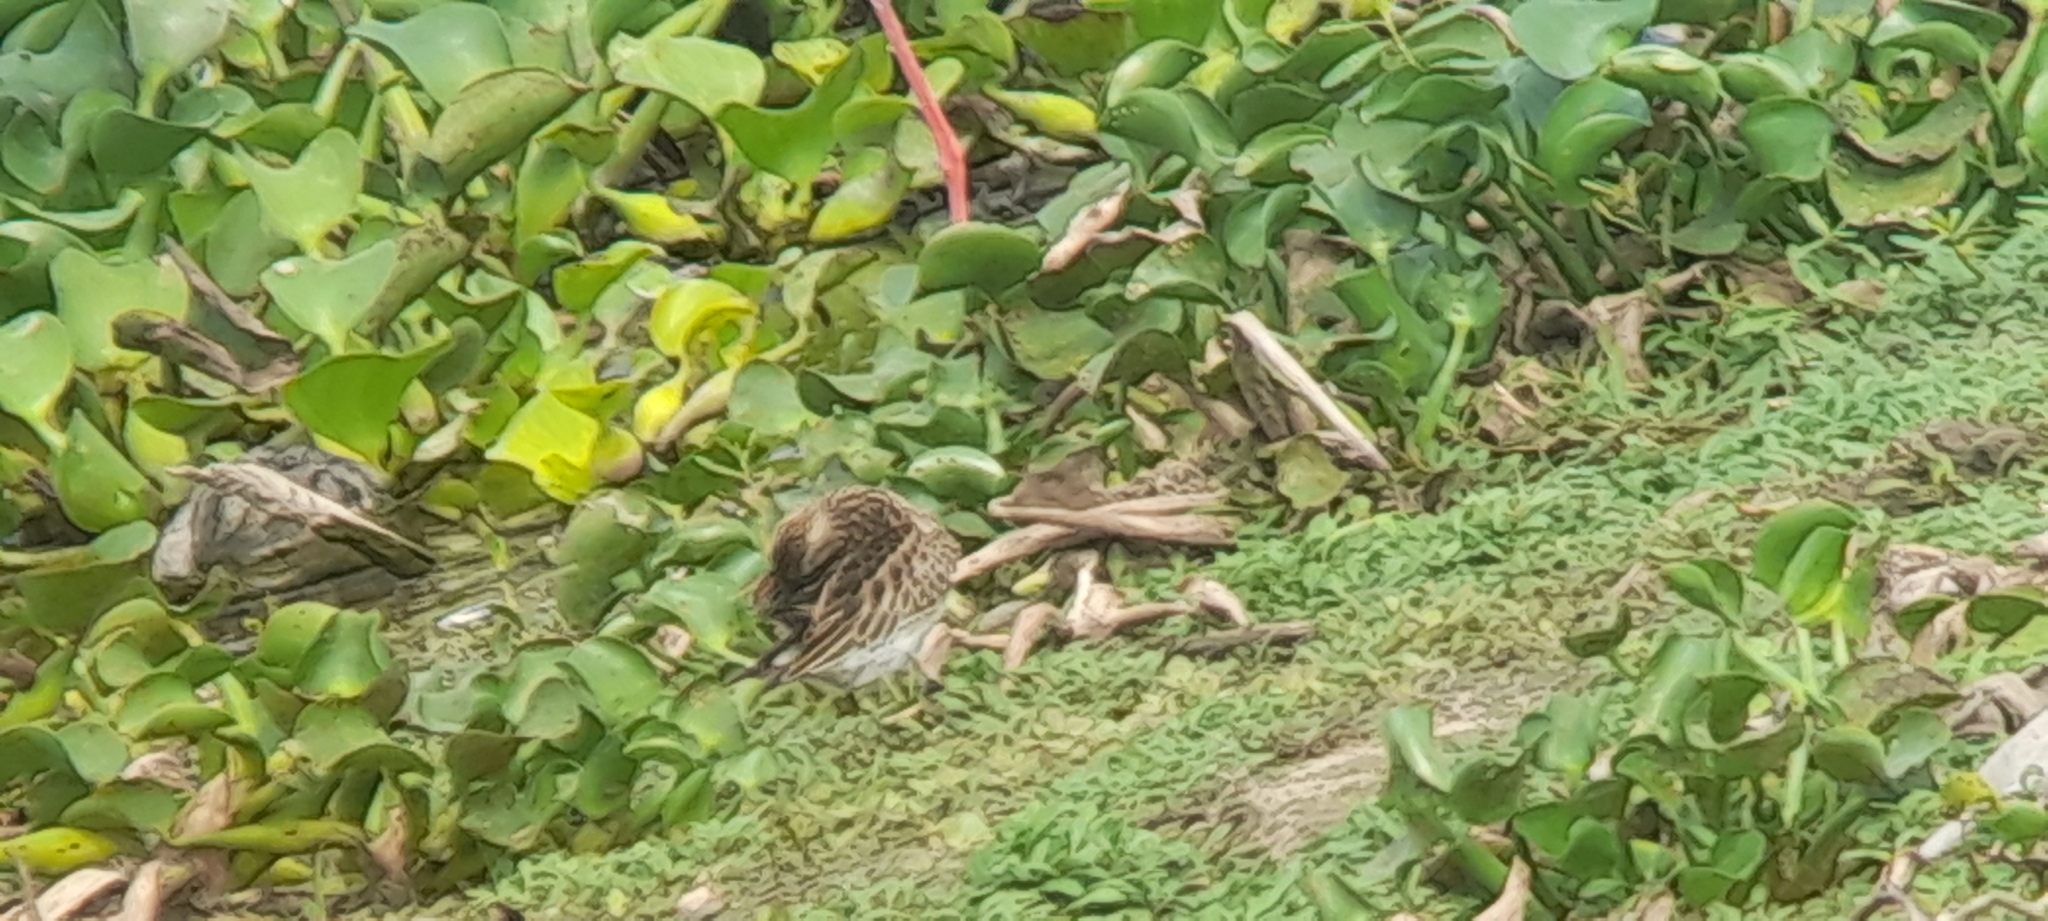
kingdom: Animalia
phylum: Chordata
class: Aves
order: Charadriiformes
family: Scolopacidae
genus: Calidris
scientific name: Calidris melanotos
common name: Pectoral sandpiper
